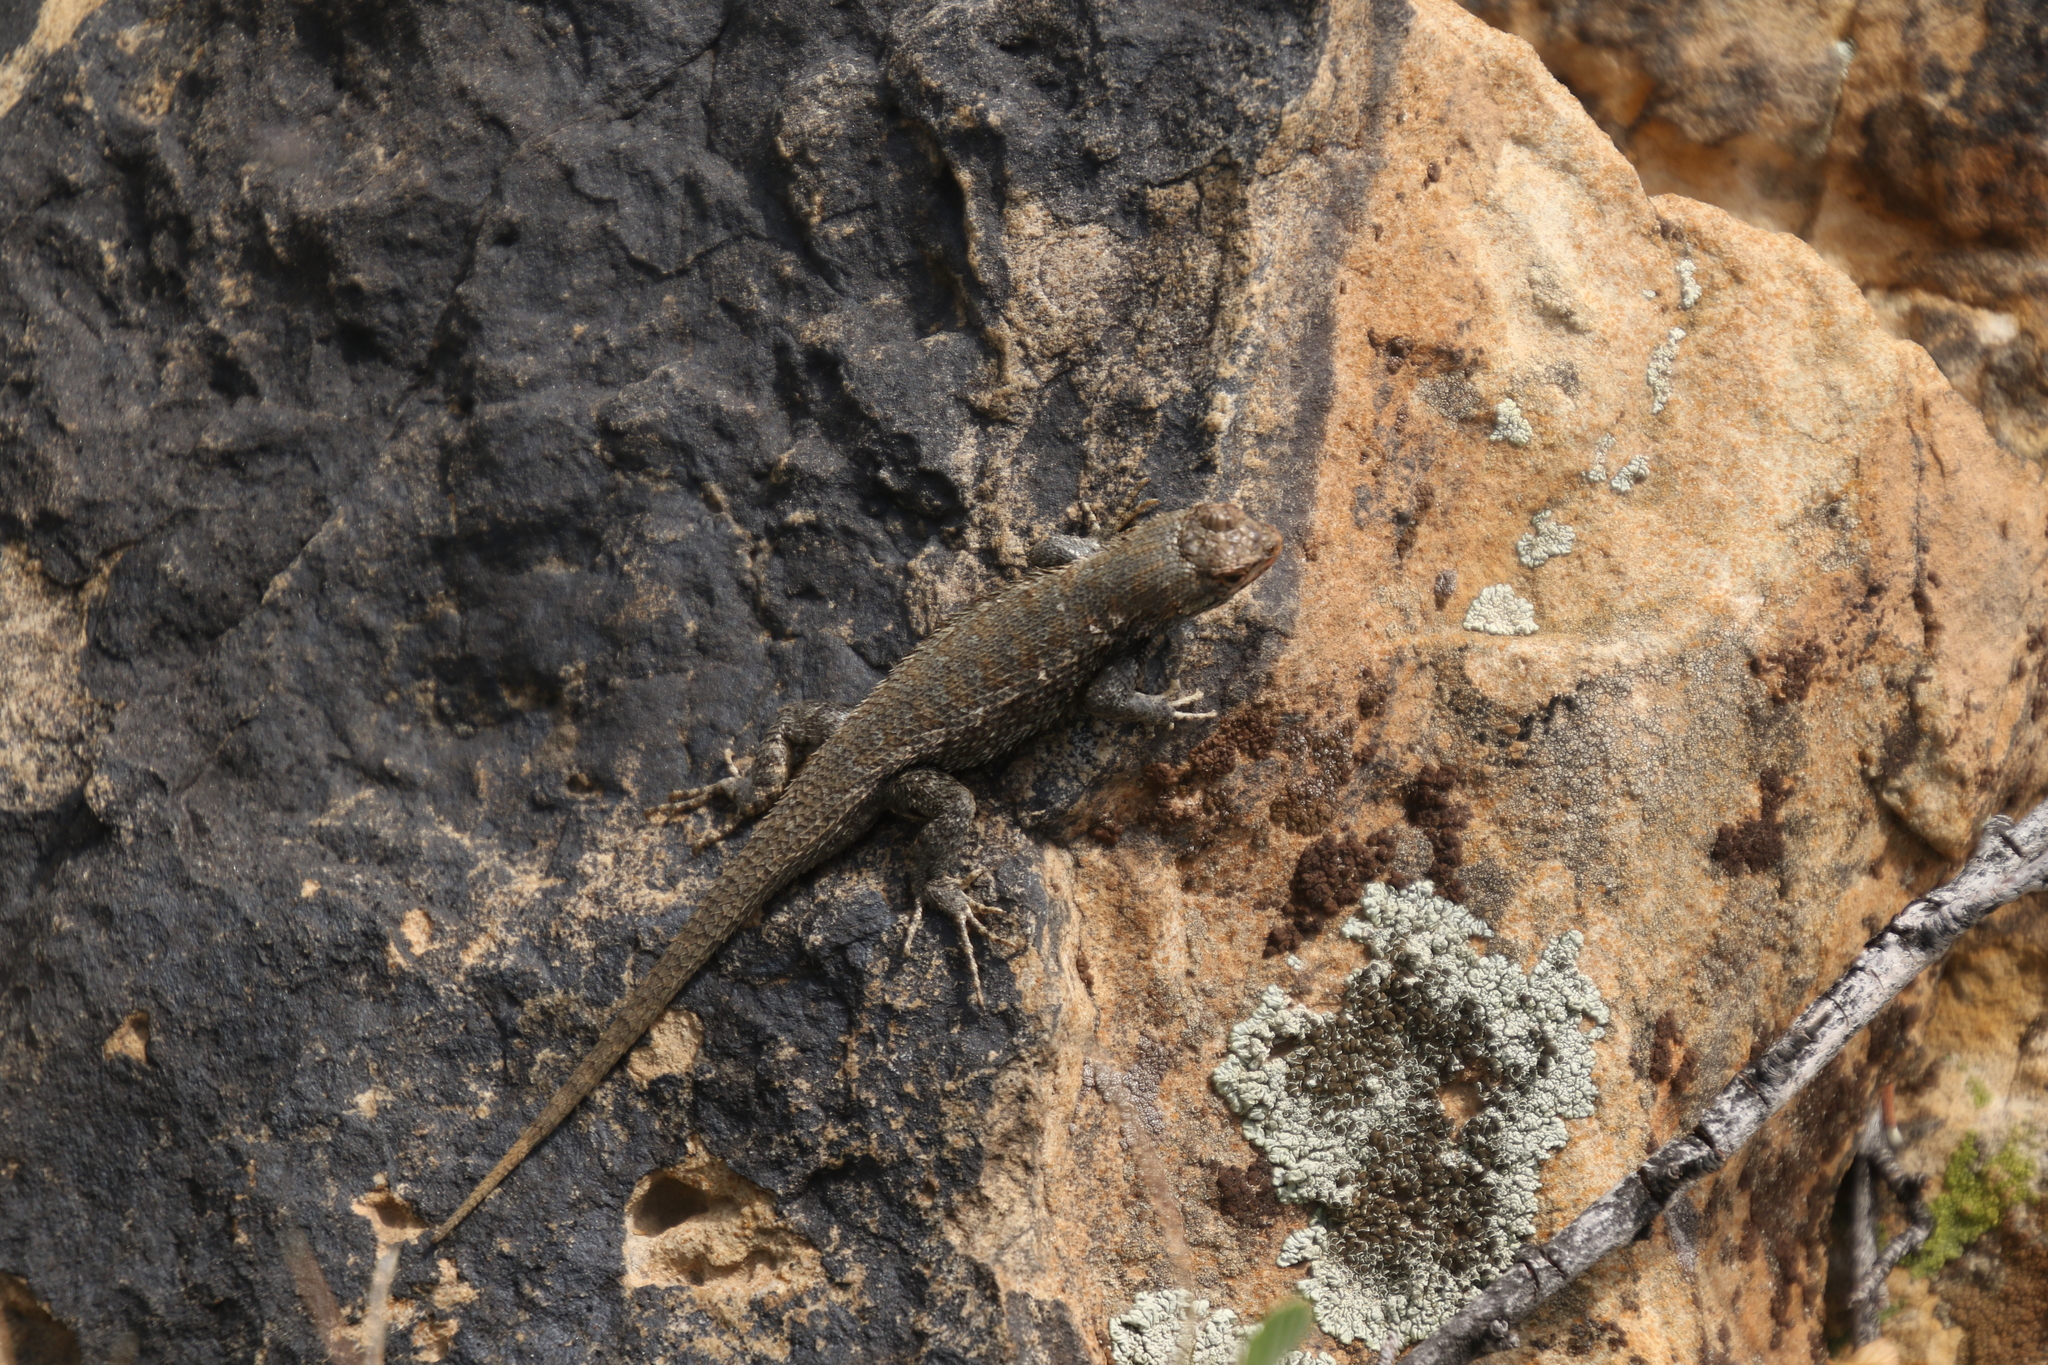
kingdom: Animalia
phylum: Chordata
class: Squamata
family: Phrynosomatidae
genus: Sceloporus
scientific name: Sceloporus consobrinus
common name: Southern prairie lizard
